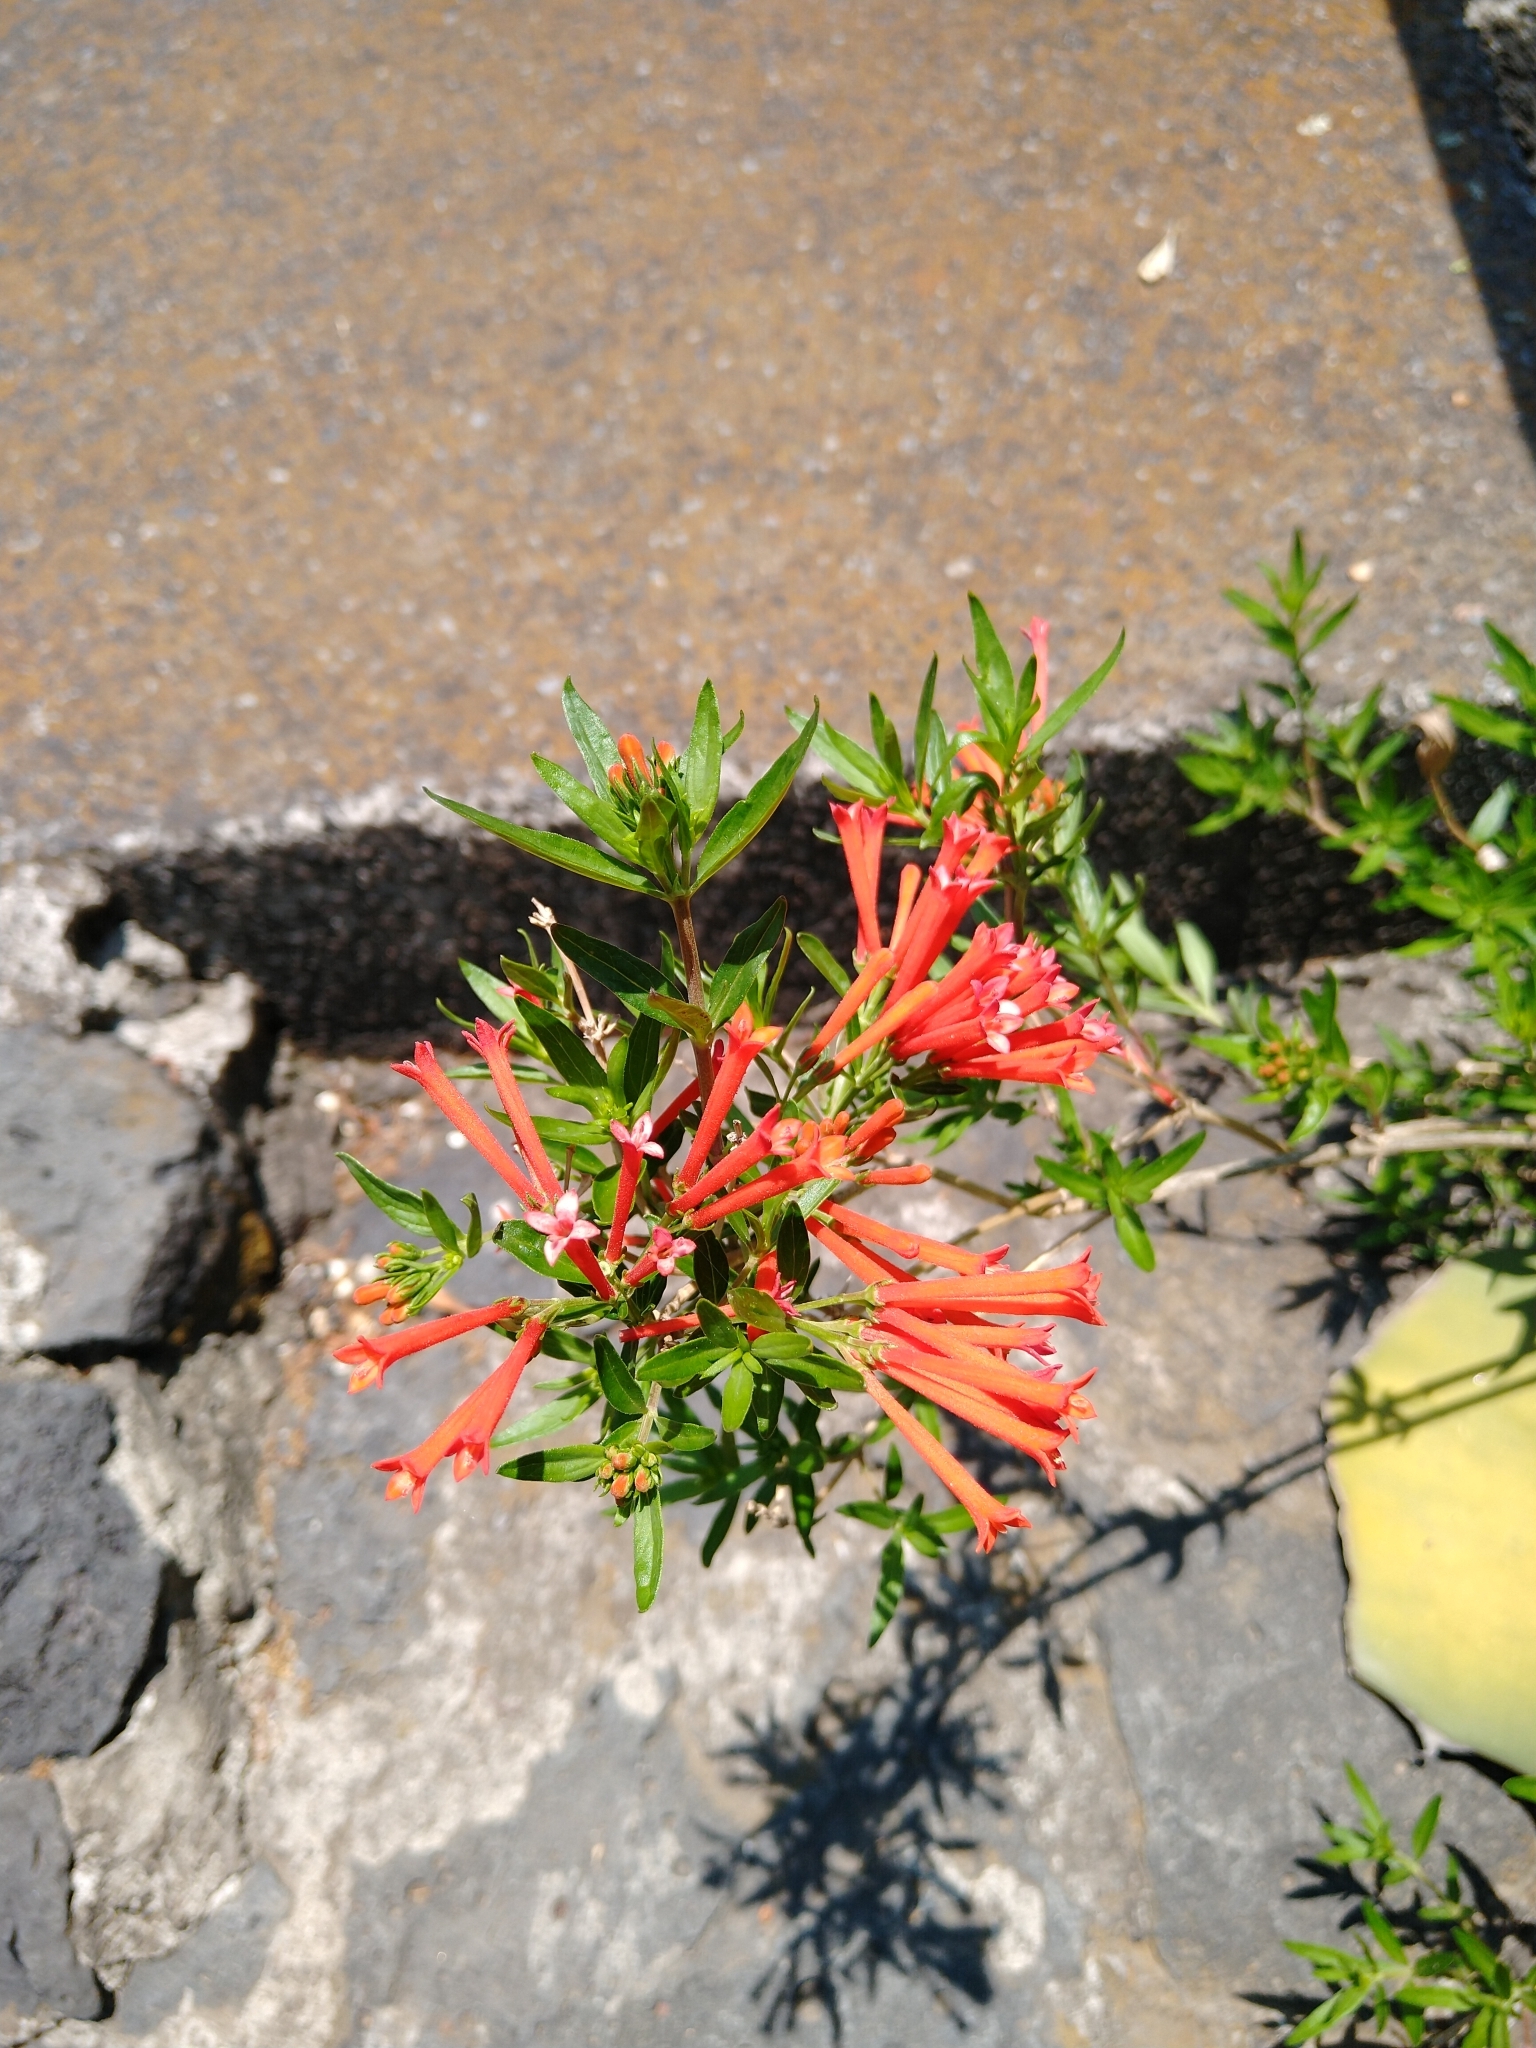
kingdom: Plantae
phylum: Tracheophyta
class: Magnoliopsida
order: Gentianales
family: Rubiaceae
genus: Bouvardia
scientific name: Bouvardia ternifolia
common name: Scarlet bouvardia
